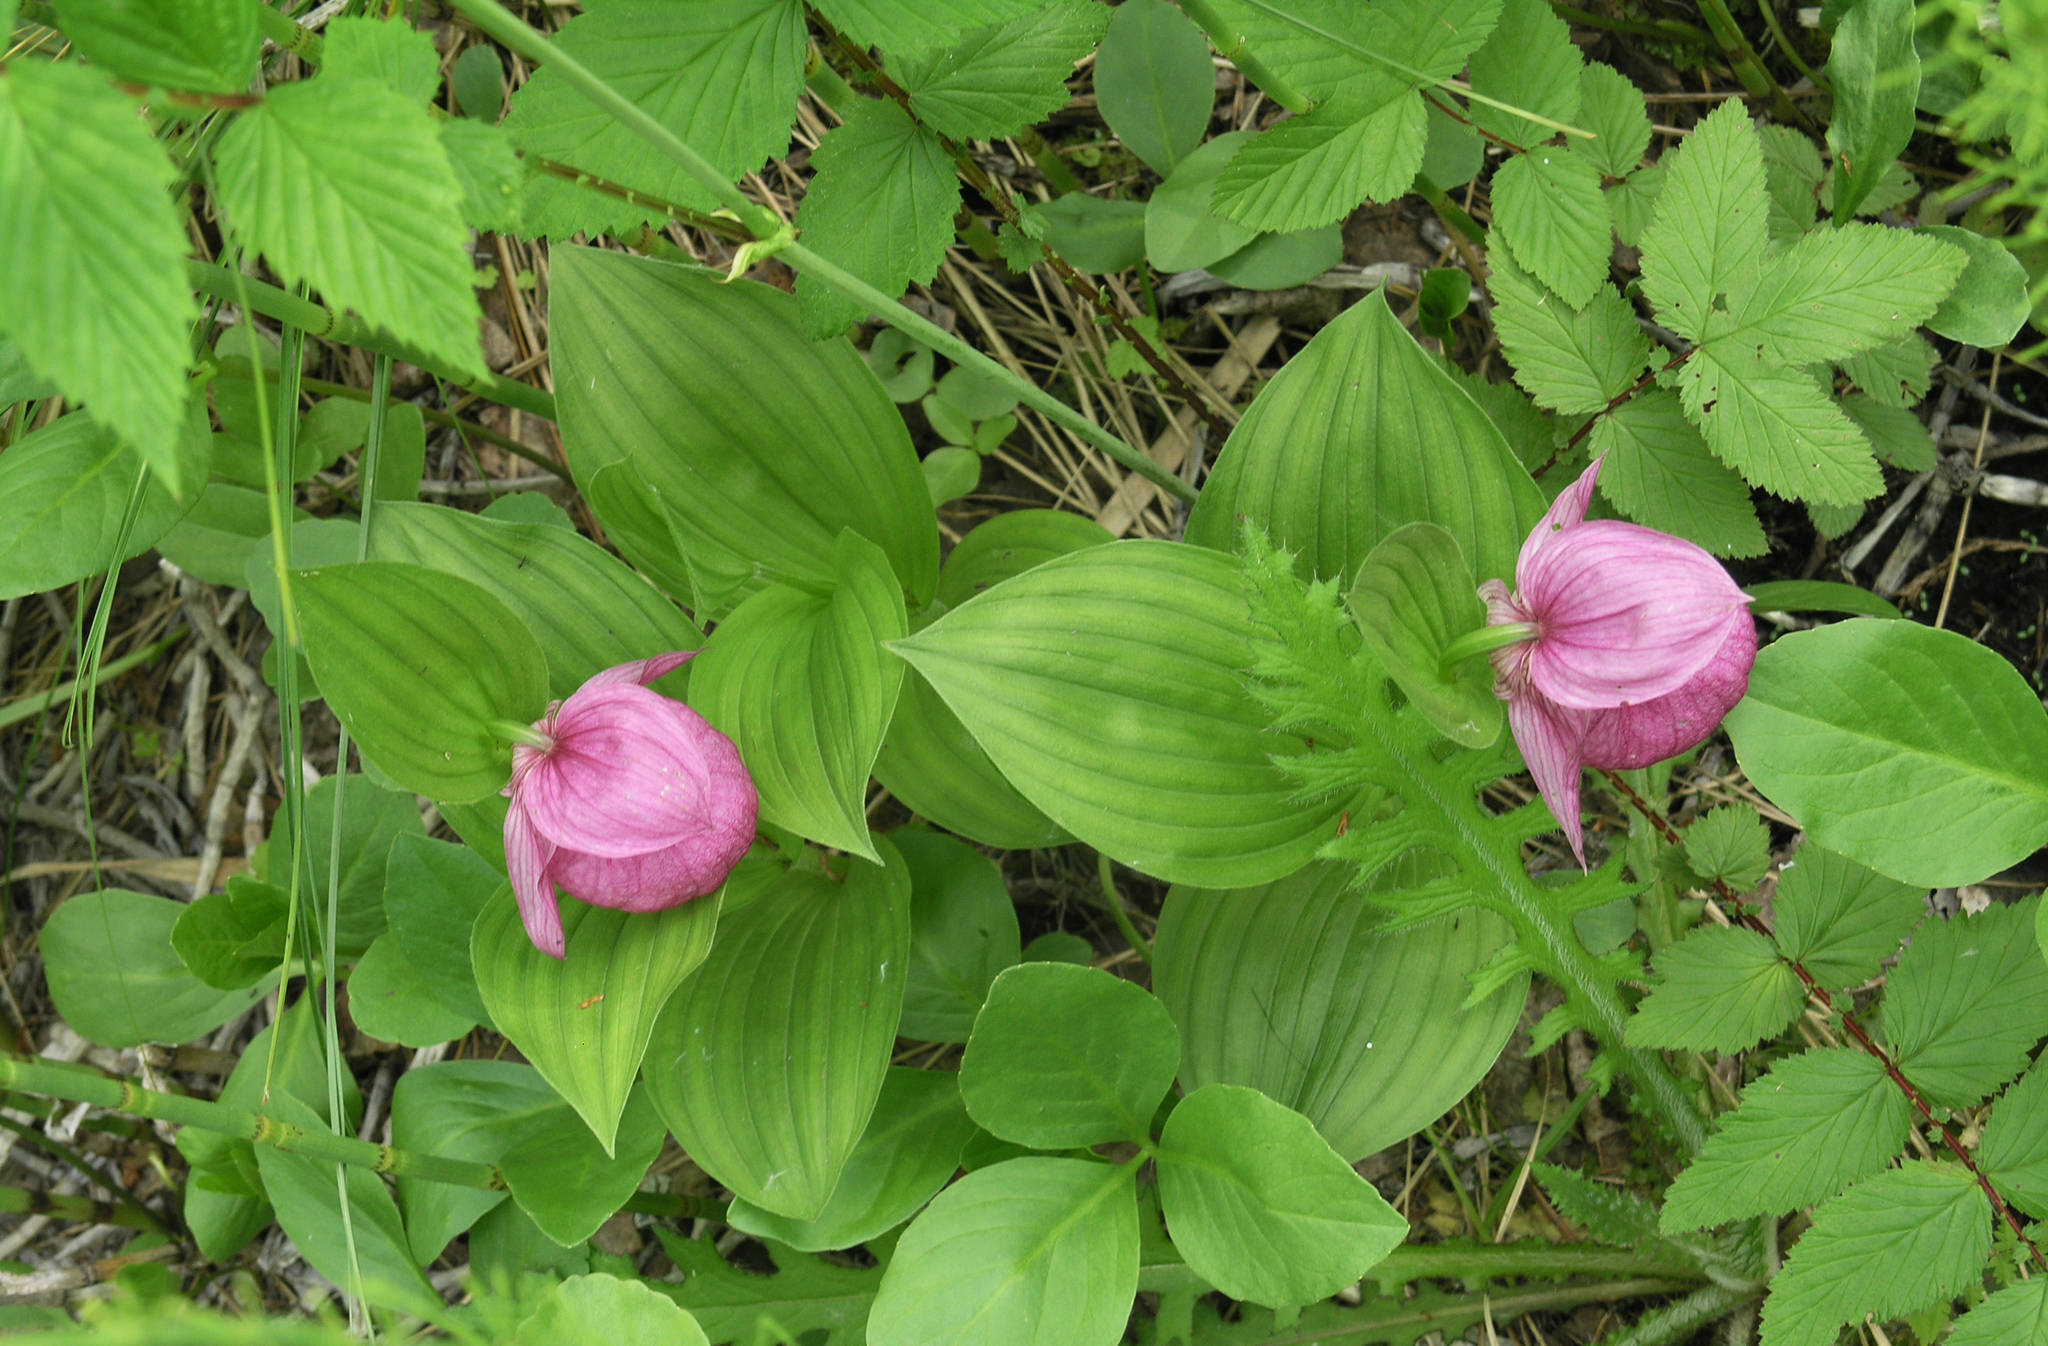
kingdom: Plantae
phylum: Tracheophyta
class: Liliopsida
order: Asparagales
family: Orchidaceae
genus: Cypripedium
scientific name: Cypripedium macranthos
